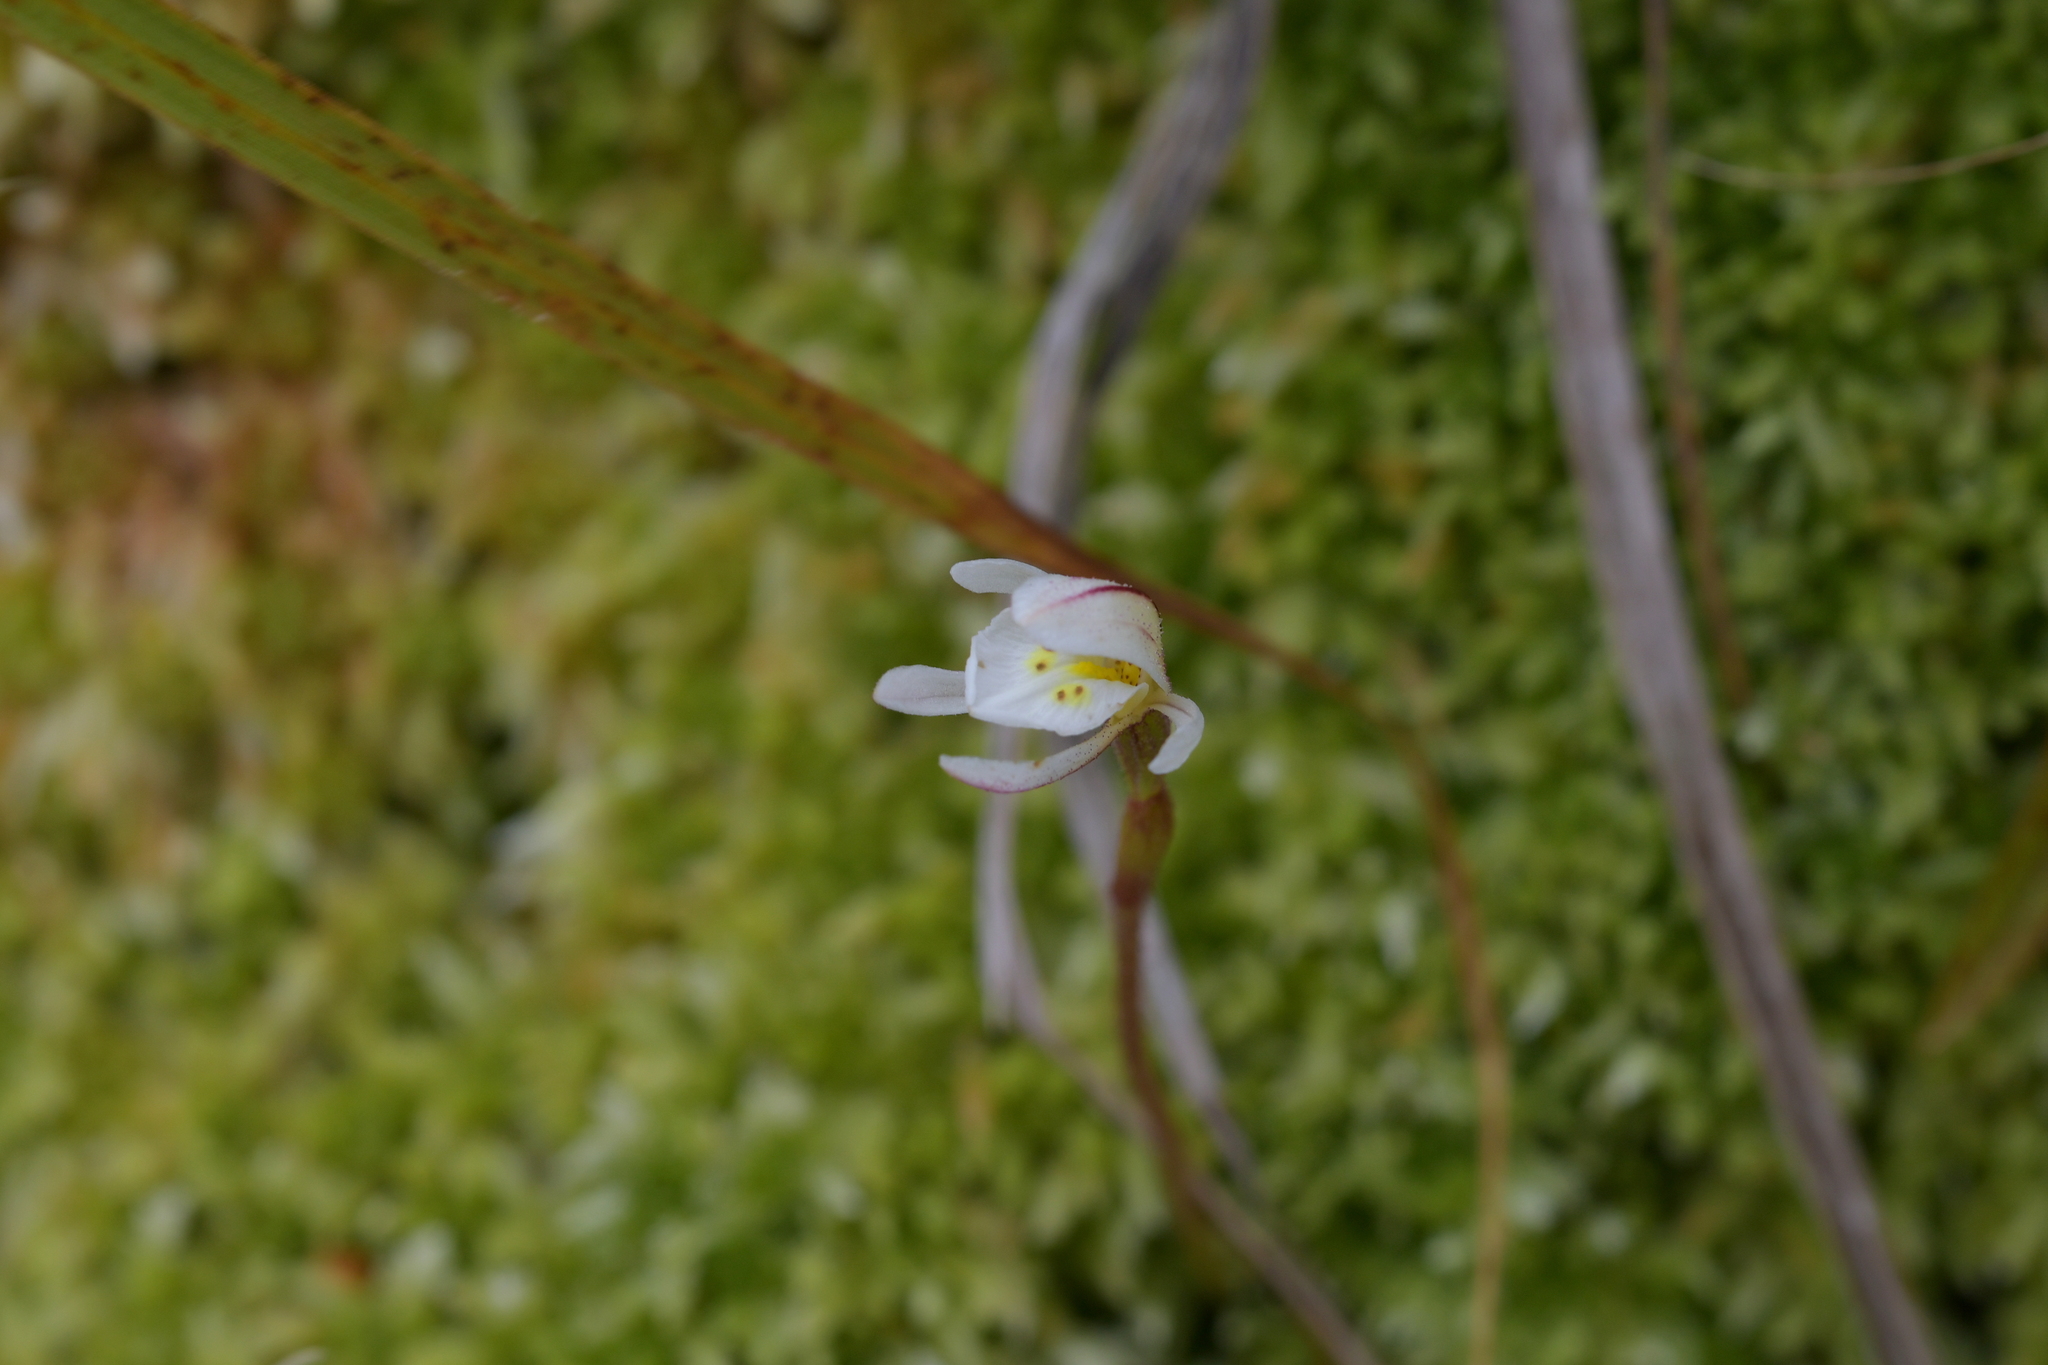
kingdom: Plantae
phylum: Tracheophyta
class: Liliopsida
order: Asparagales
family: Orchidaceae
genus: Aporostylis
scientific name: Aporostylis bifolia
